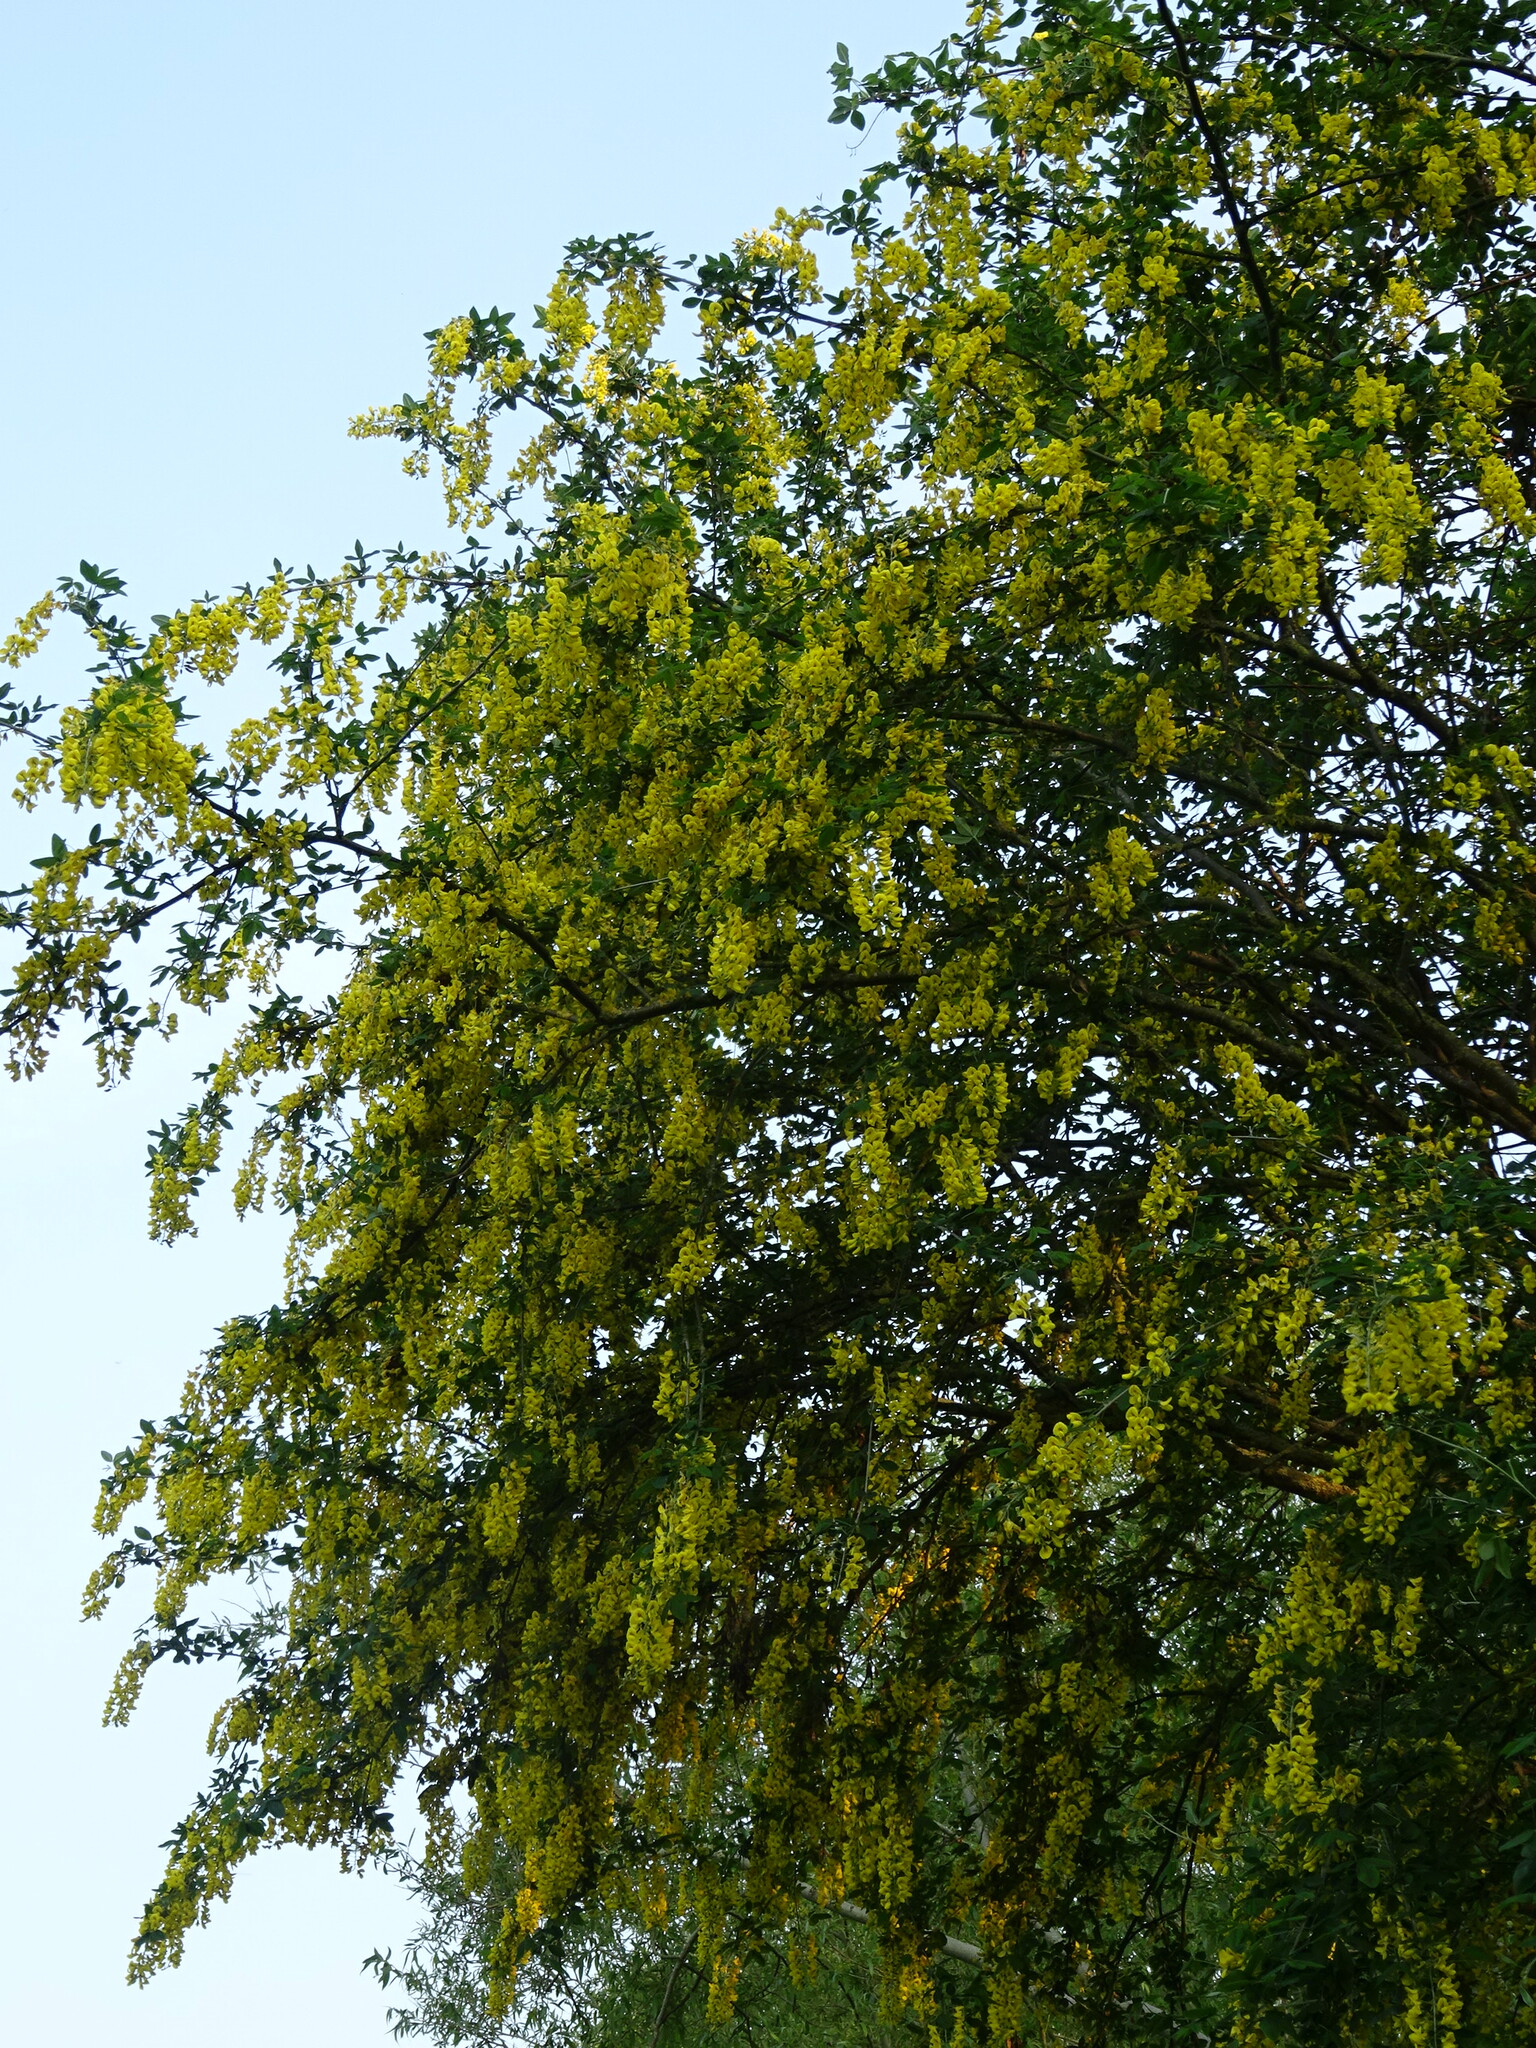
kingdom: Plantae
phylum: Tracheophyta
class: Magnoliopsida
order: Fabales
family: Fabaceae
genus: Laburnum
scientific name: Laburnum anagyroides
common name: Laburnum
